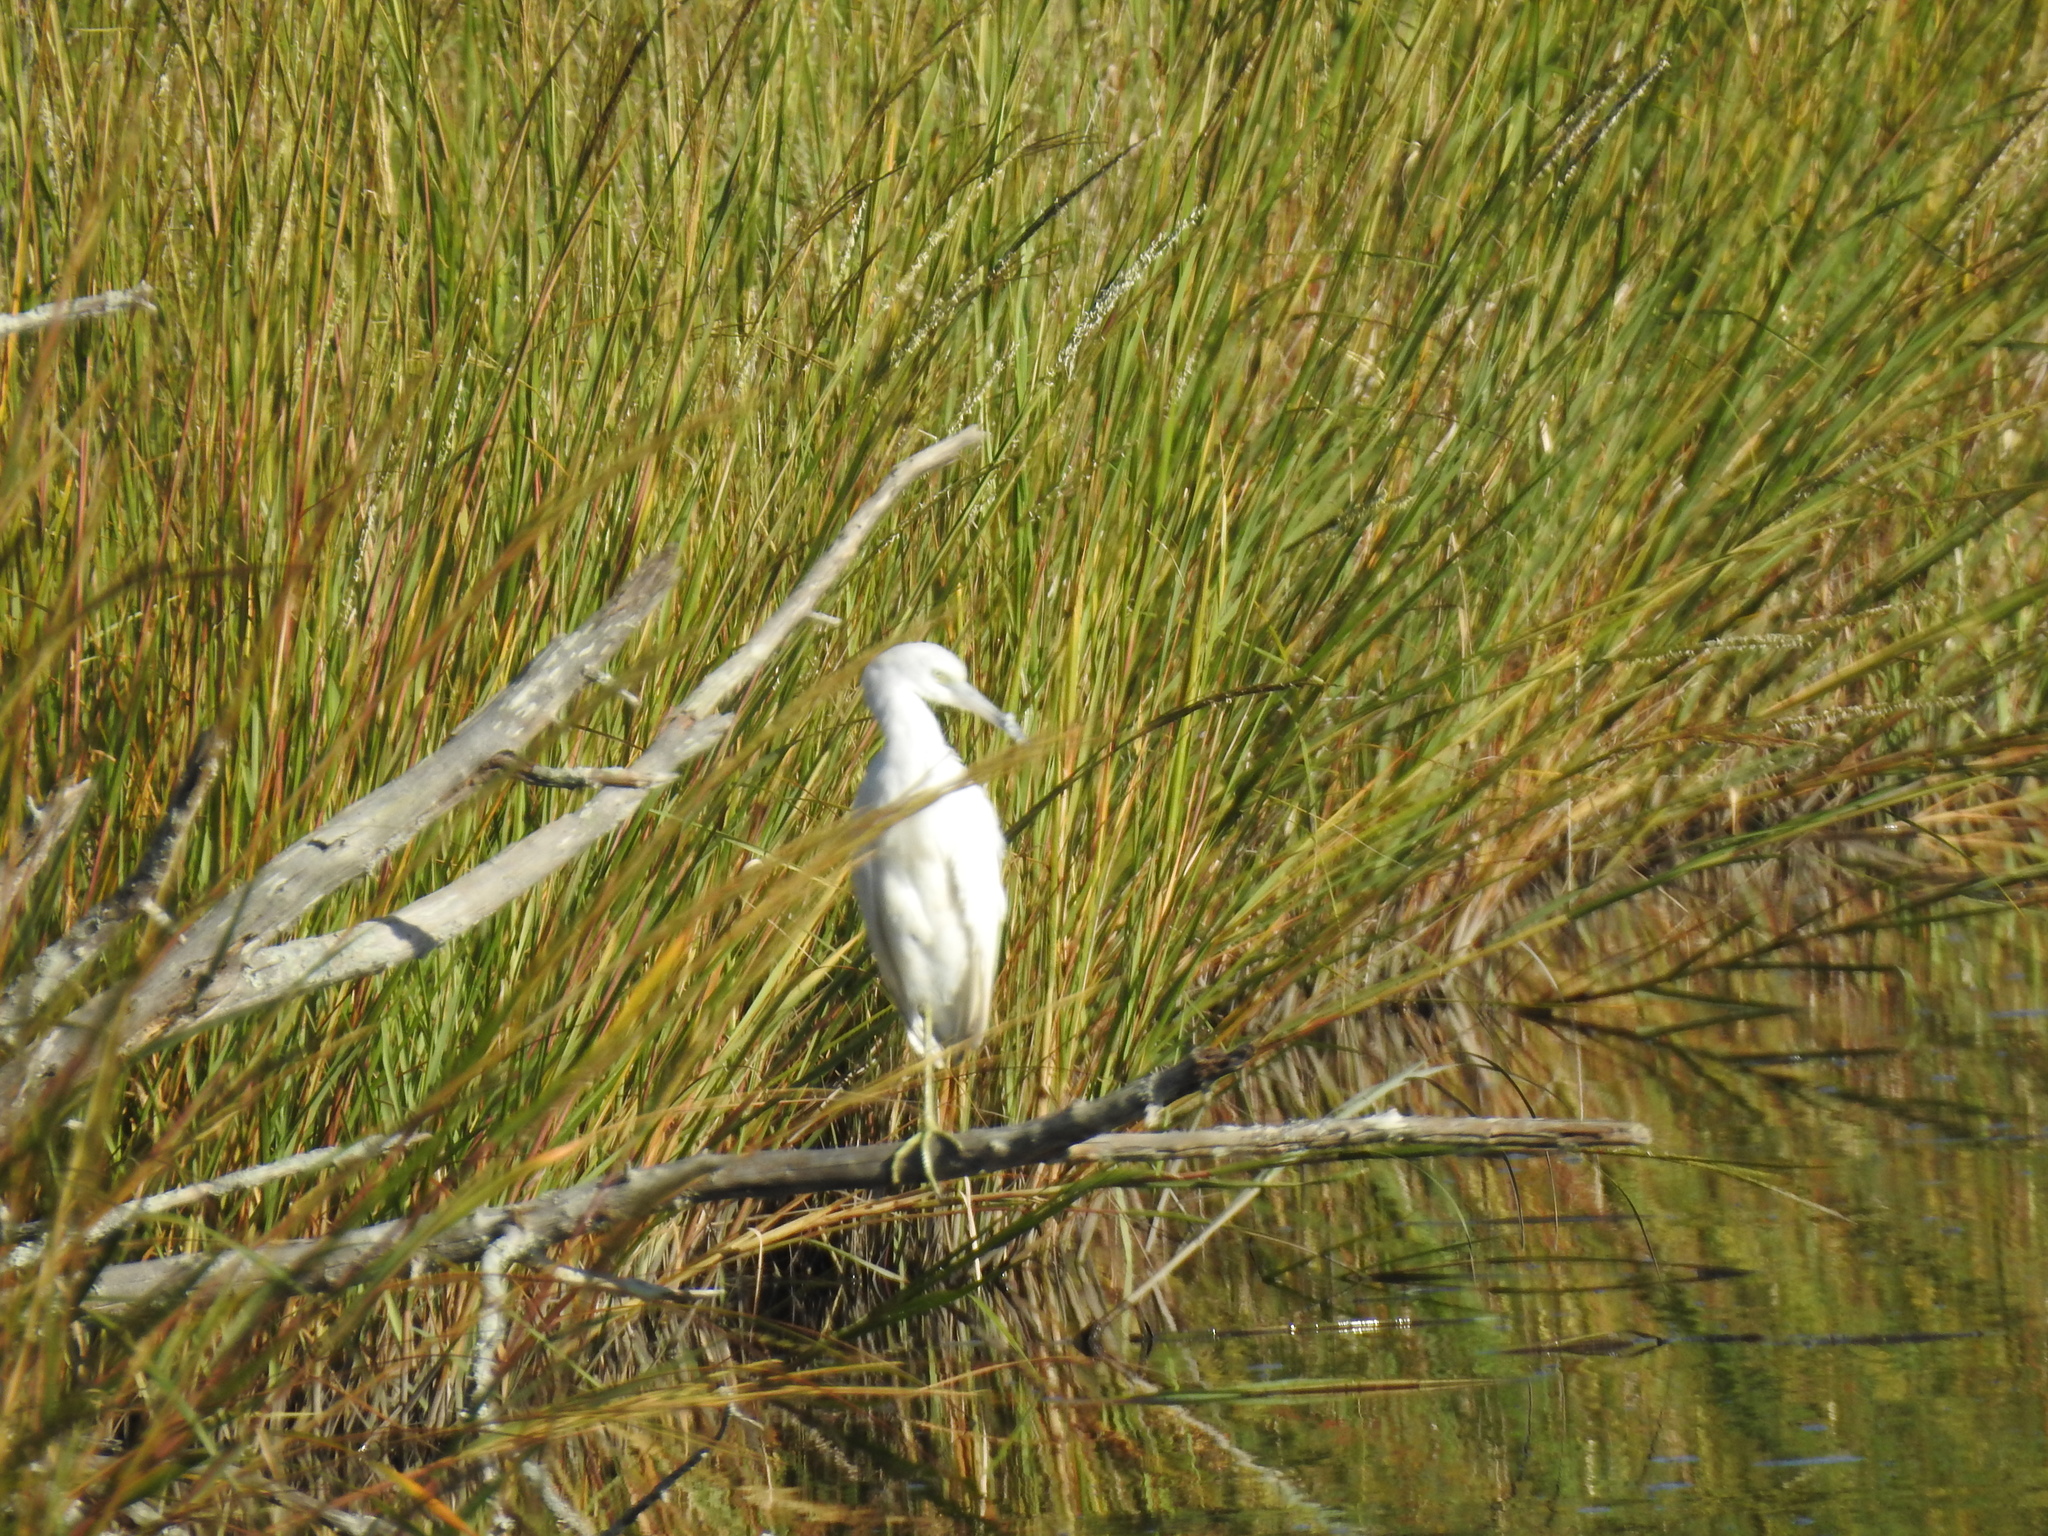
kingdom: Animalia
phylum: Chordata
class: Aves
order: Pelecaniformes
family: Ardeidae
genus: Egretta
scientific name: Egretta caerulea
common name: Little blue heron
